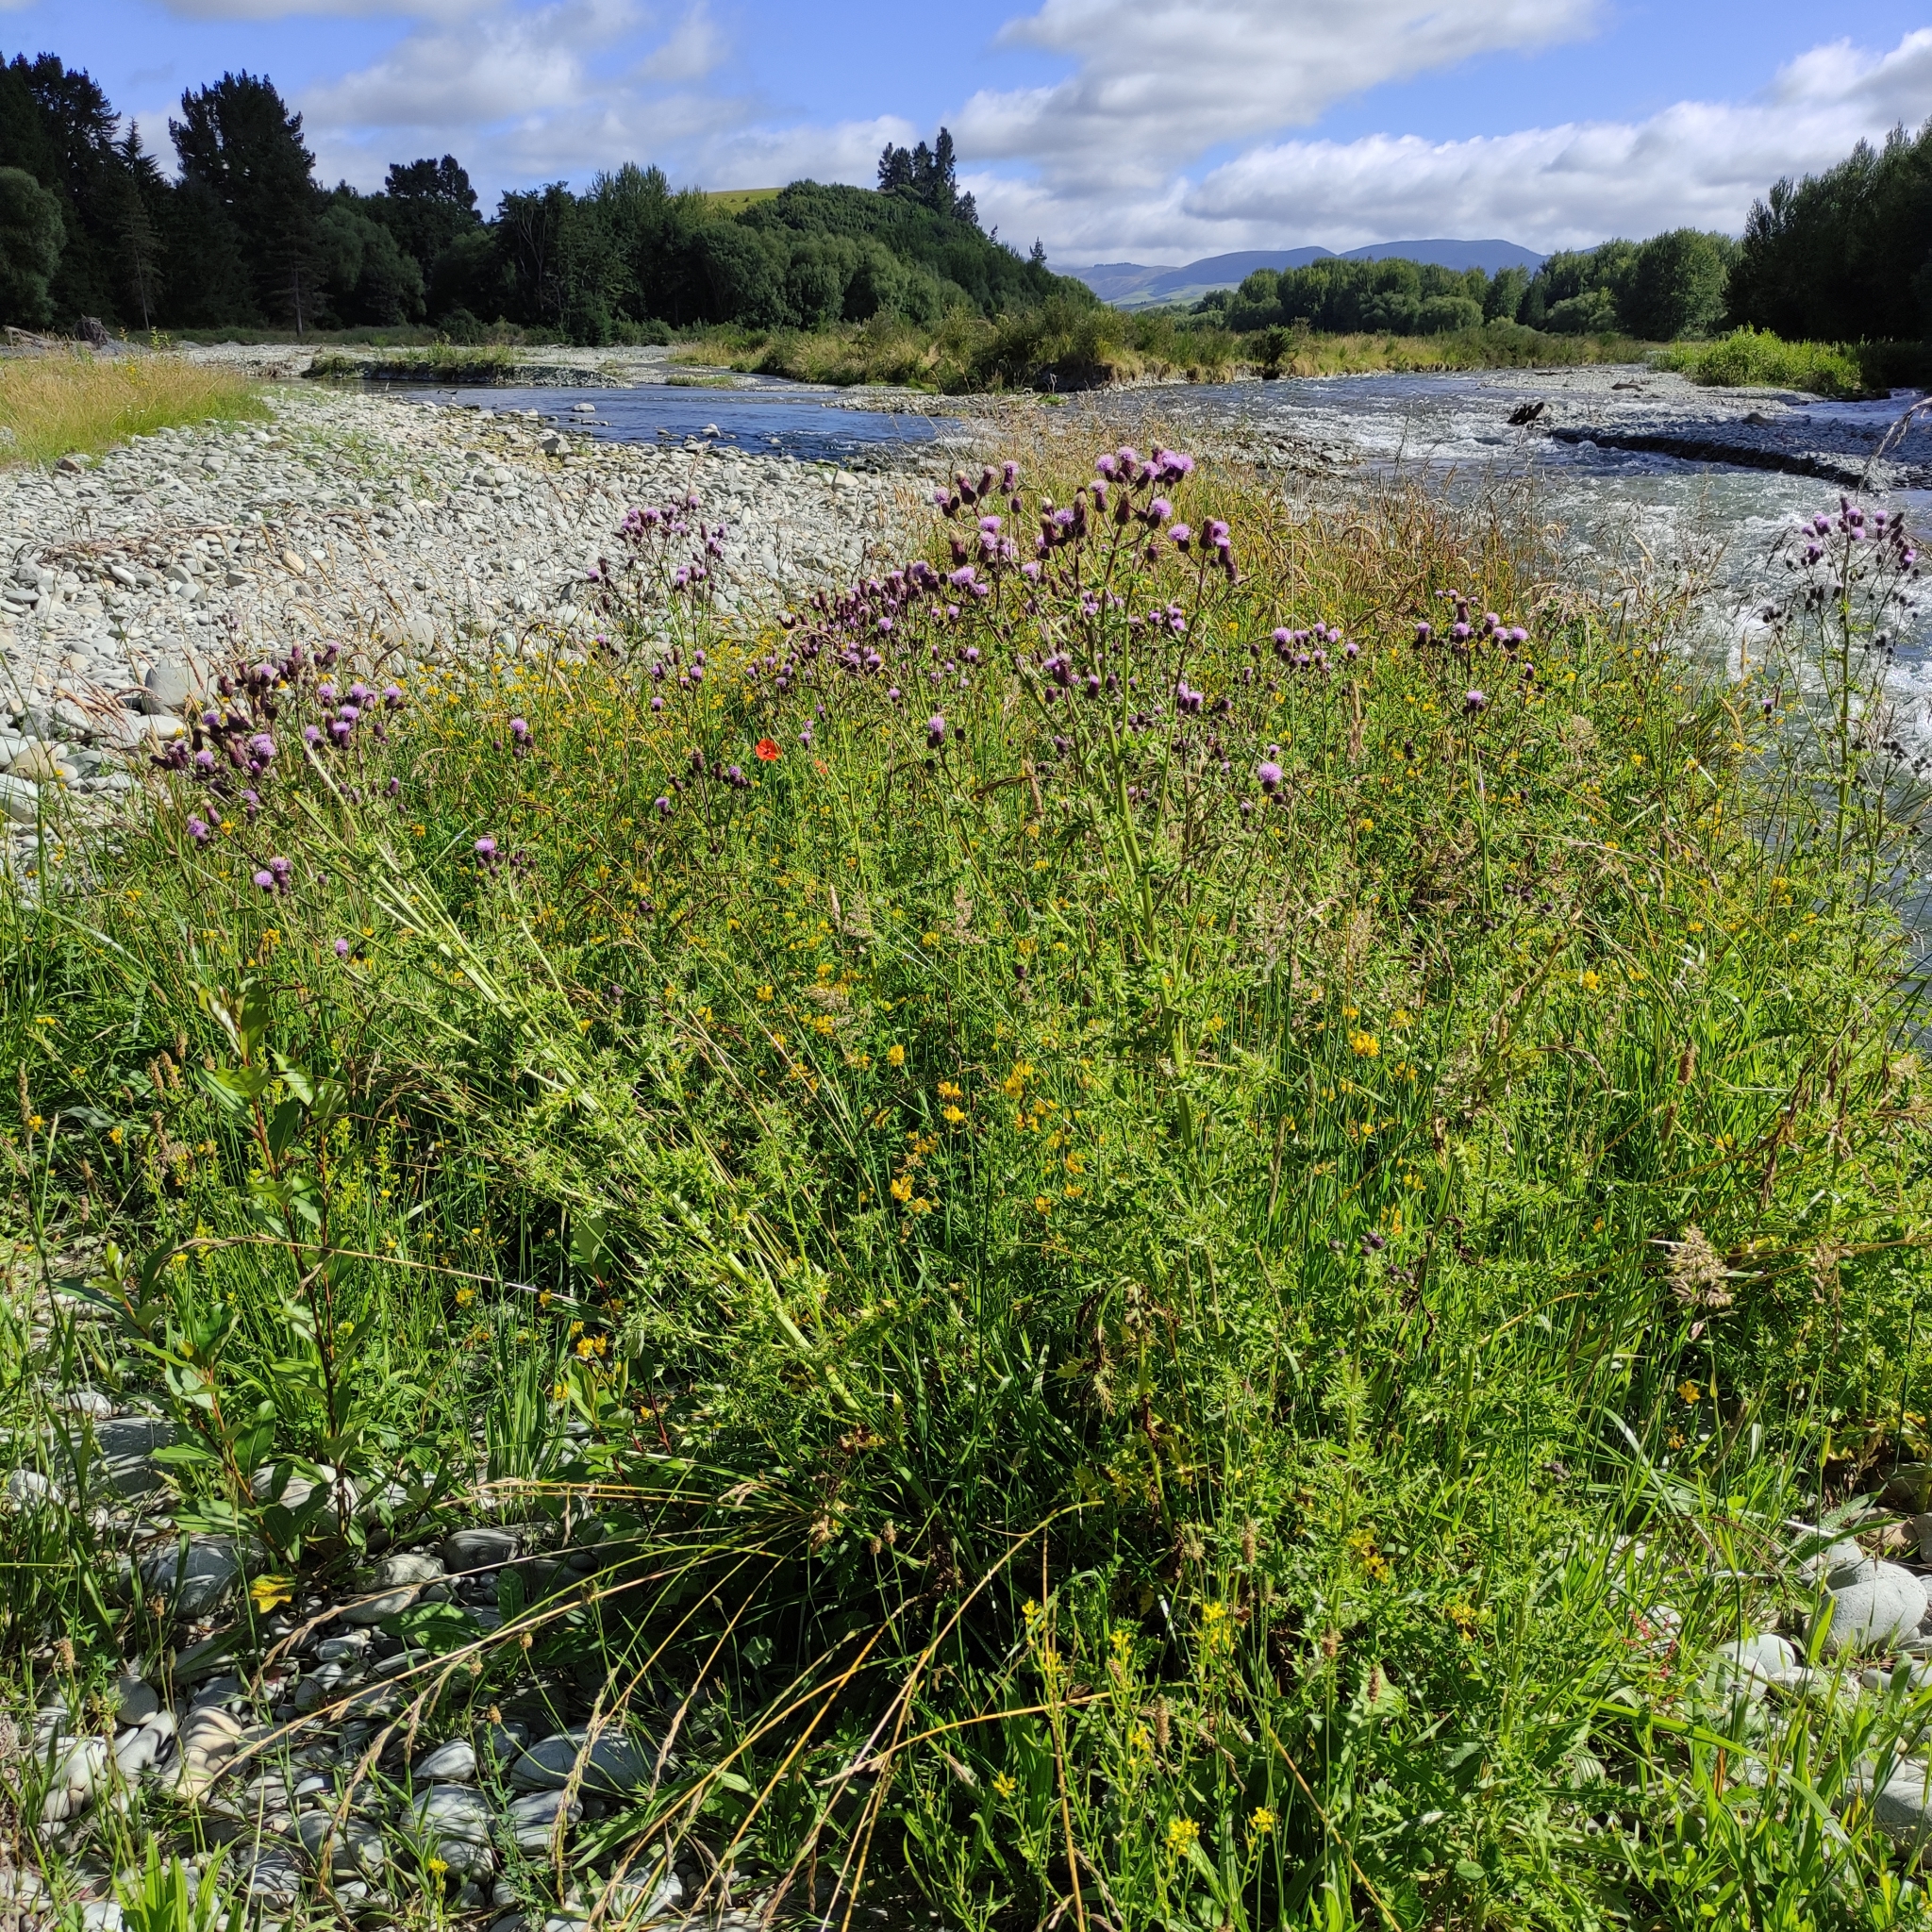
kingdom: Plantae
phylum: Tracheophyta
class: Magnoliopsida
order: Asterales
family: Asteraceae
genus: Cirsium
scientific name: Cirsium arvense
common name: Creeping thistle
